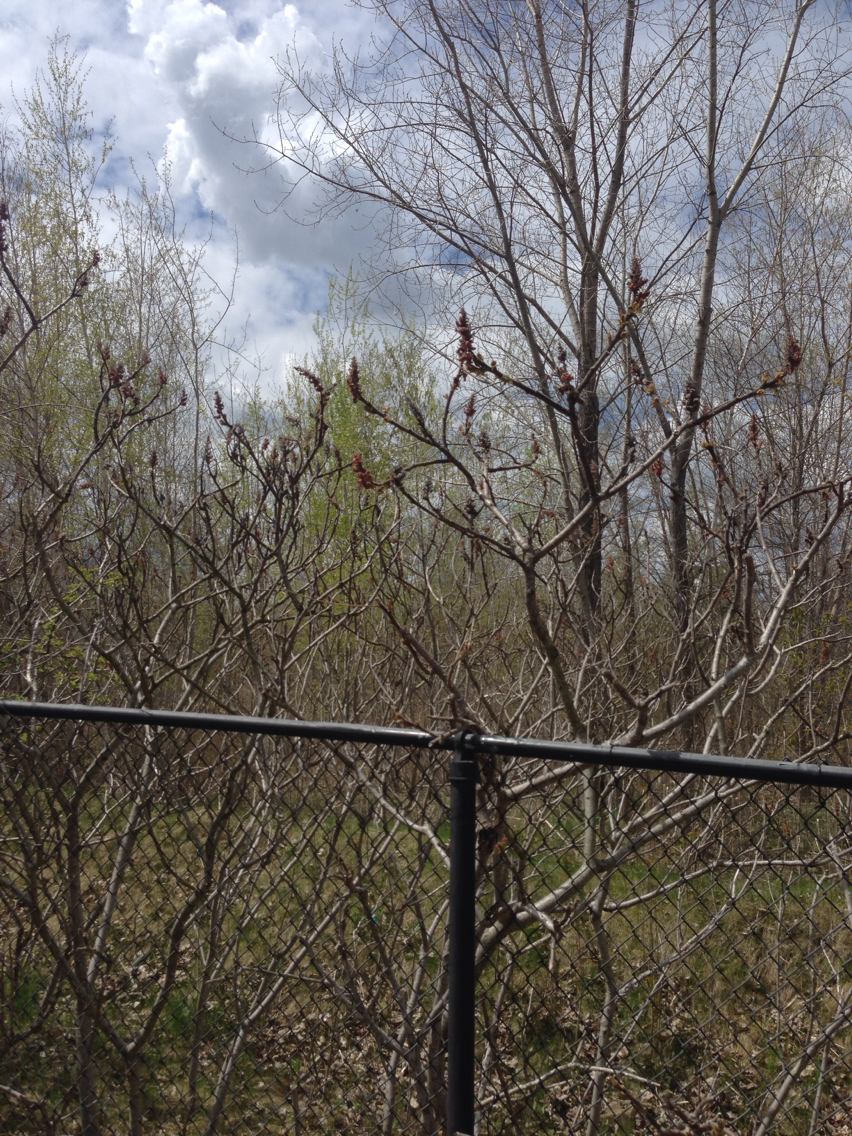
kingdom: Plantae
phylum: Tracheophyta
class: Magnoliopsida
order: Sapindales
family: Anacardiaceae
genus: Rhus
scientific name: Rhus typhina
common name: Staghorn sumac
